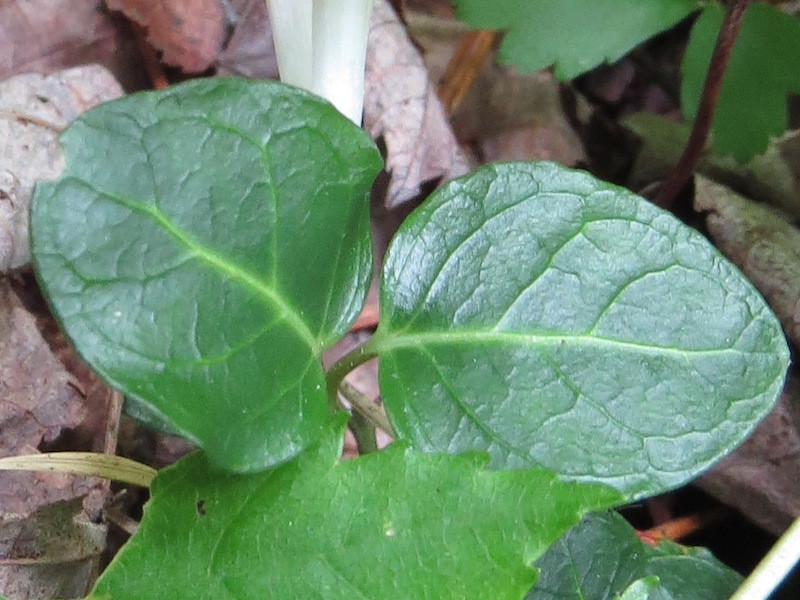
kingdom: Plantae
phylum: Tracheophyta
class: Magnoliopsida
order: Gentianales
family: Rubiaceae
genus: Mitchella
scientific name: Mitchella repens
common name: Partridge-berry
